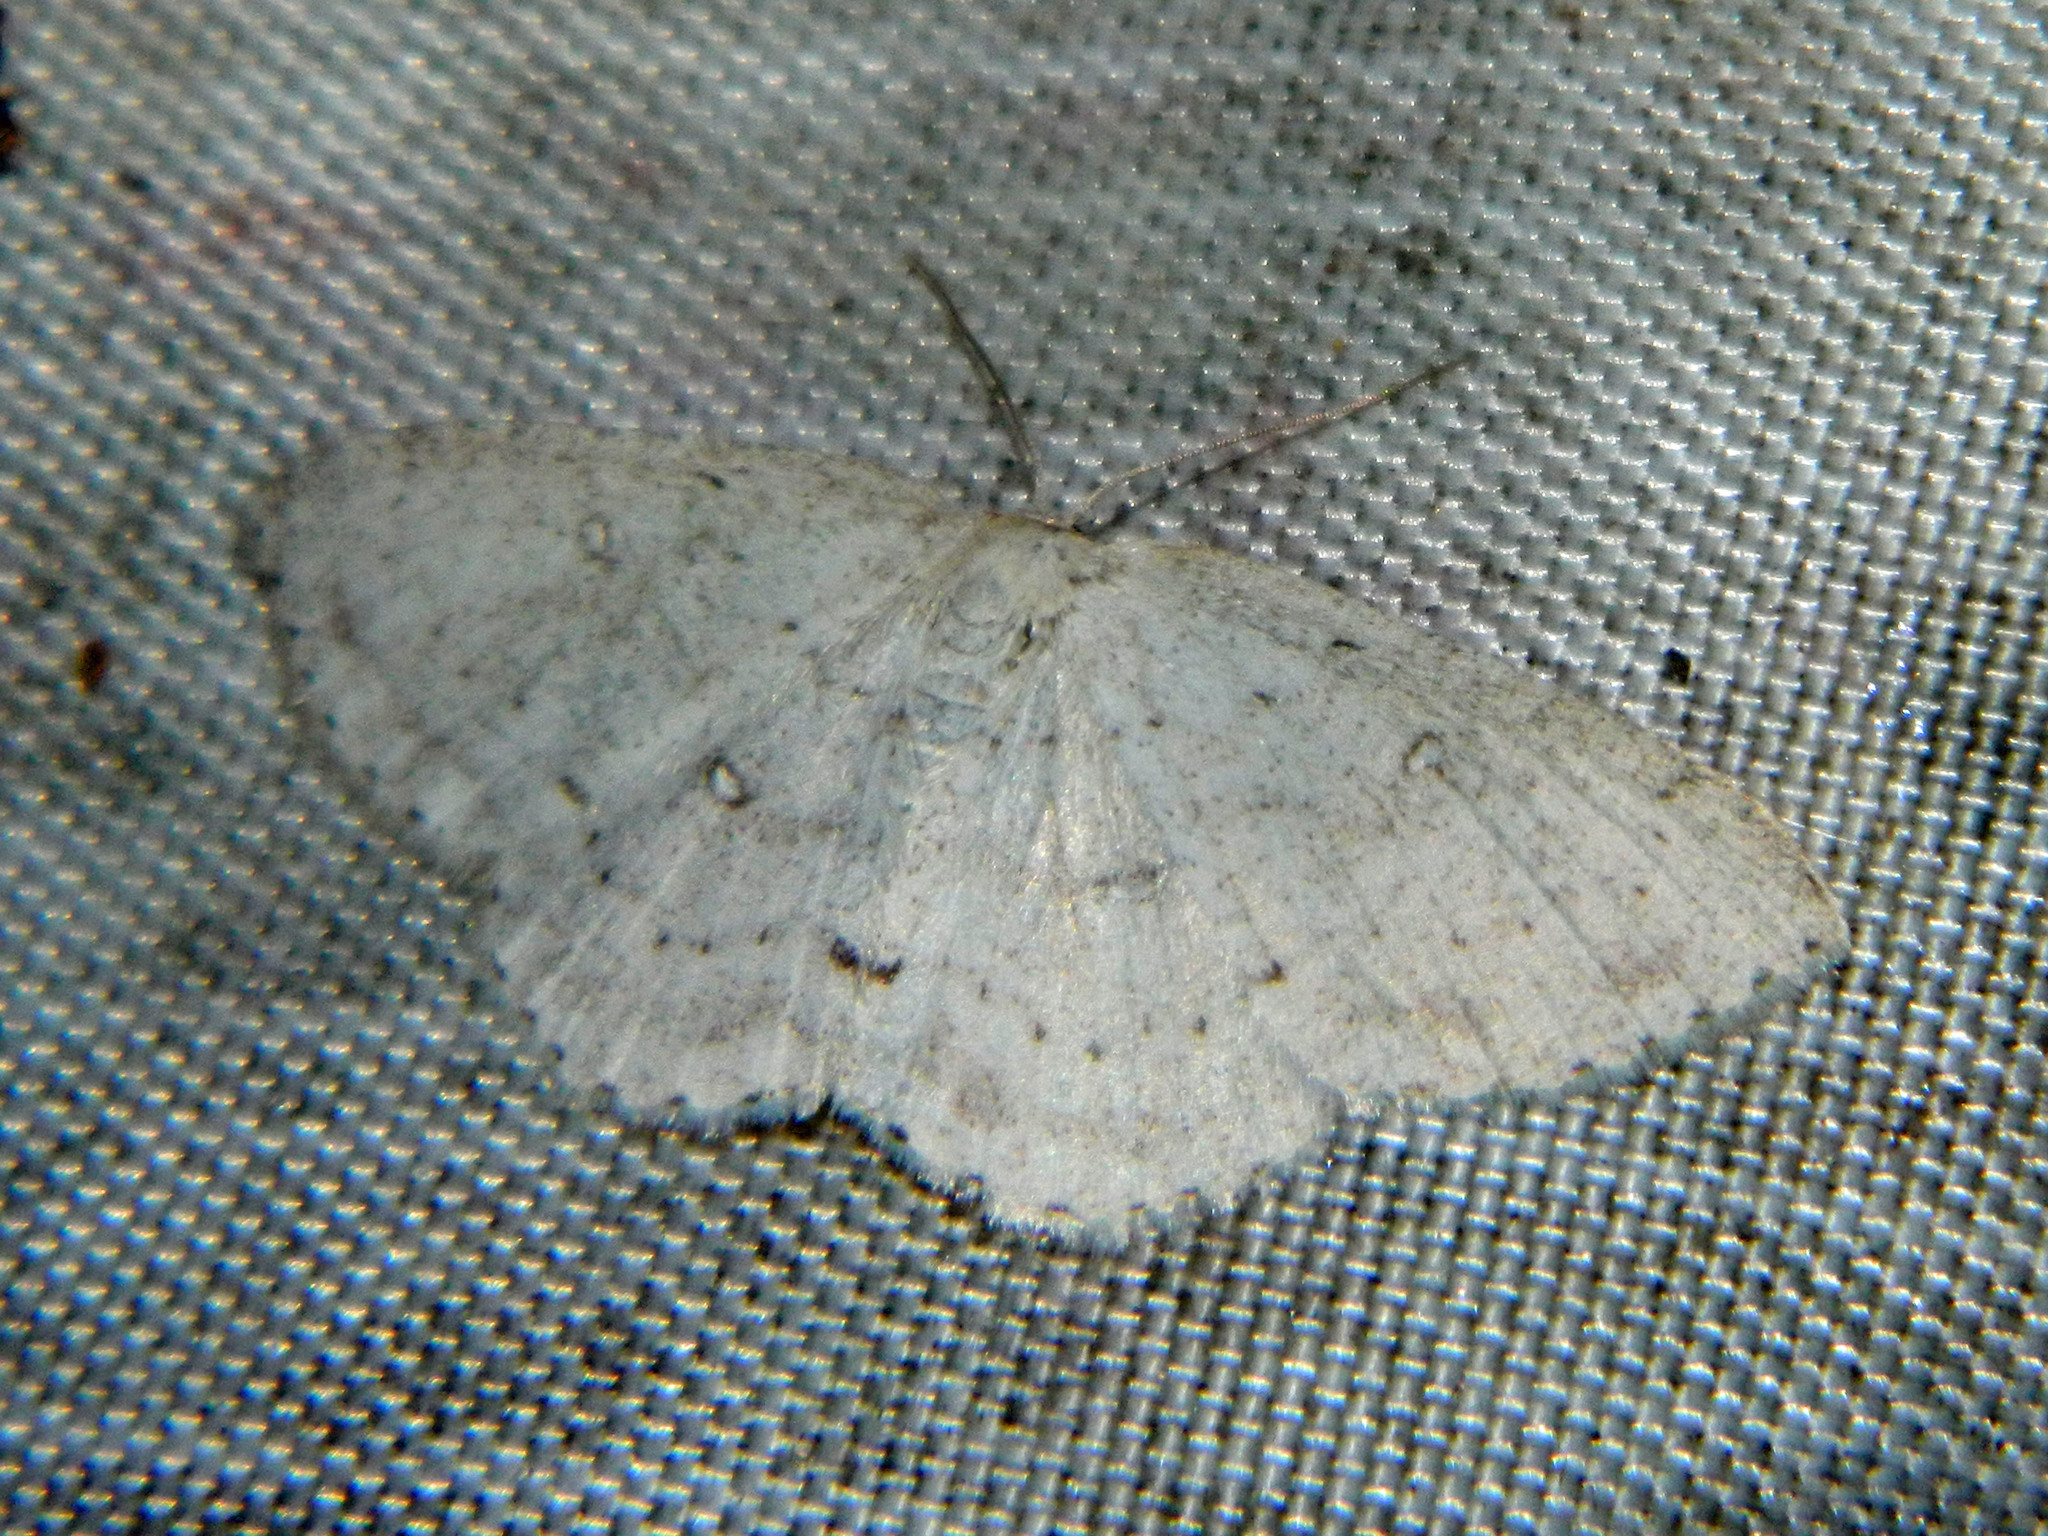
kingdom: Animalia
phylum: Arthropoda
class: Insecta
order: Lepidoptera
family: Geometridae
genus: Cyclophora
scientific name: Cyclophora pendulinaria
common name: Sweet fern geometer
